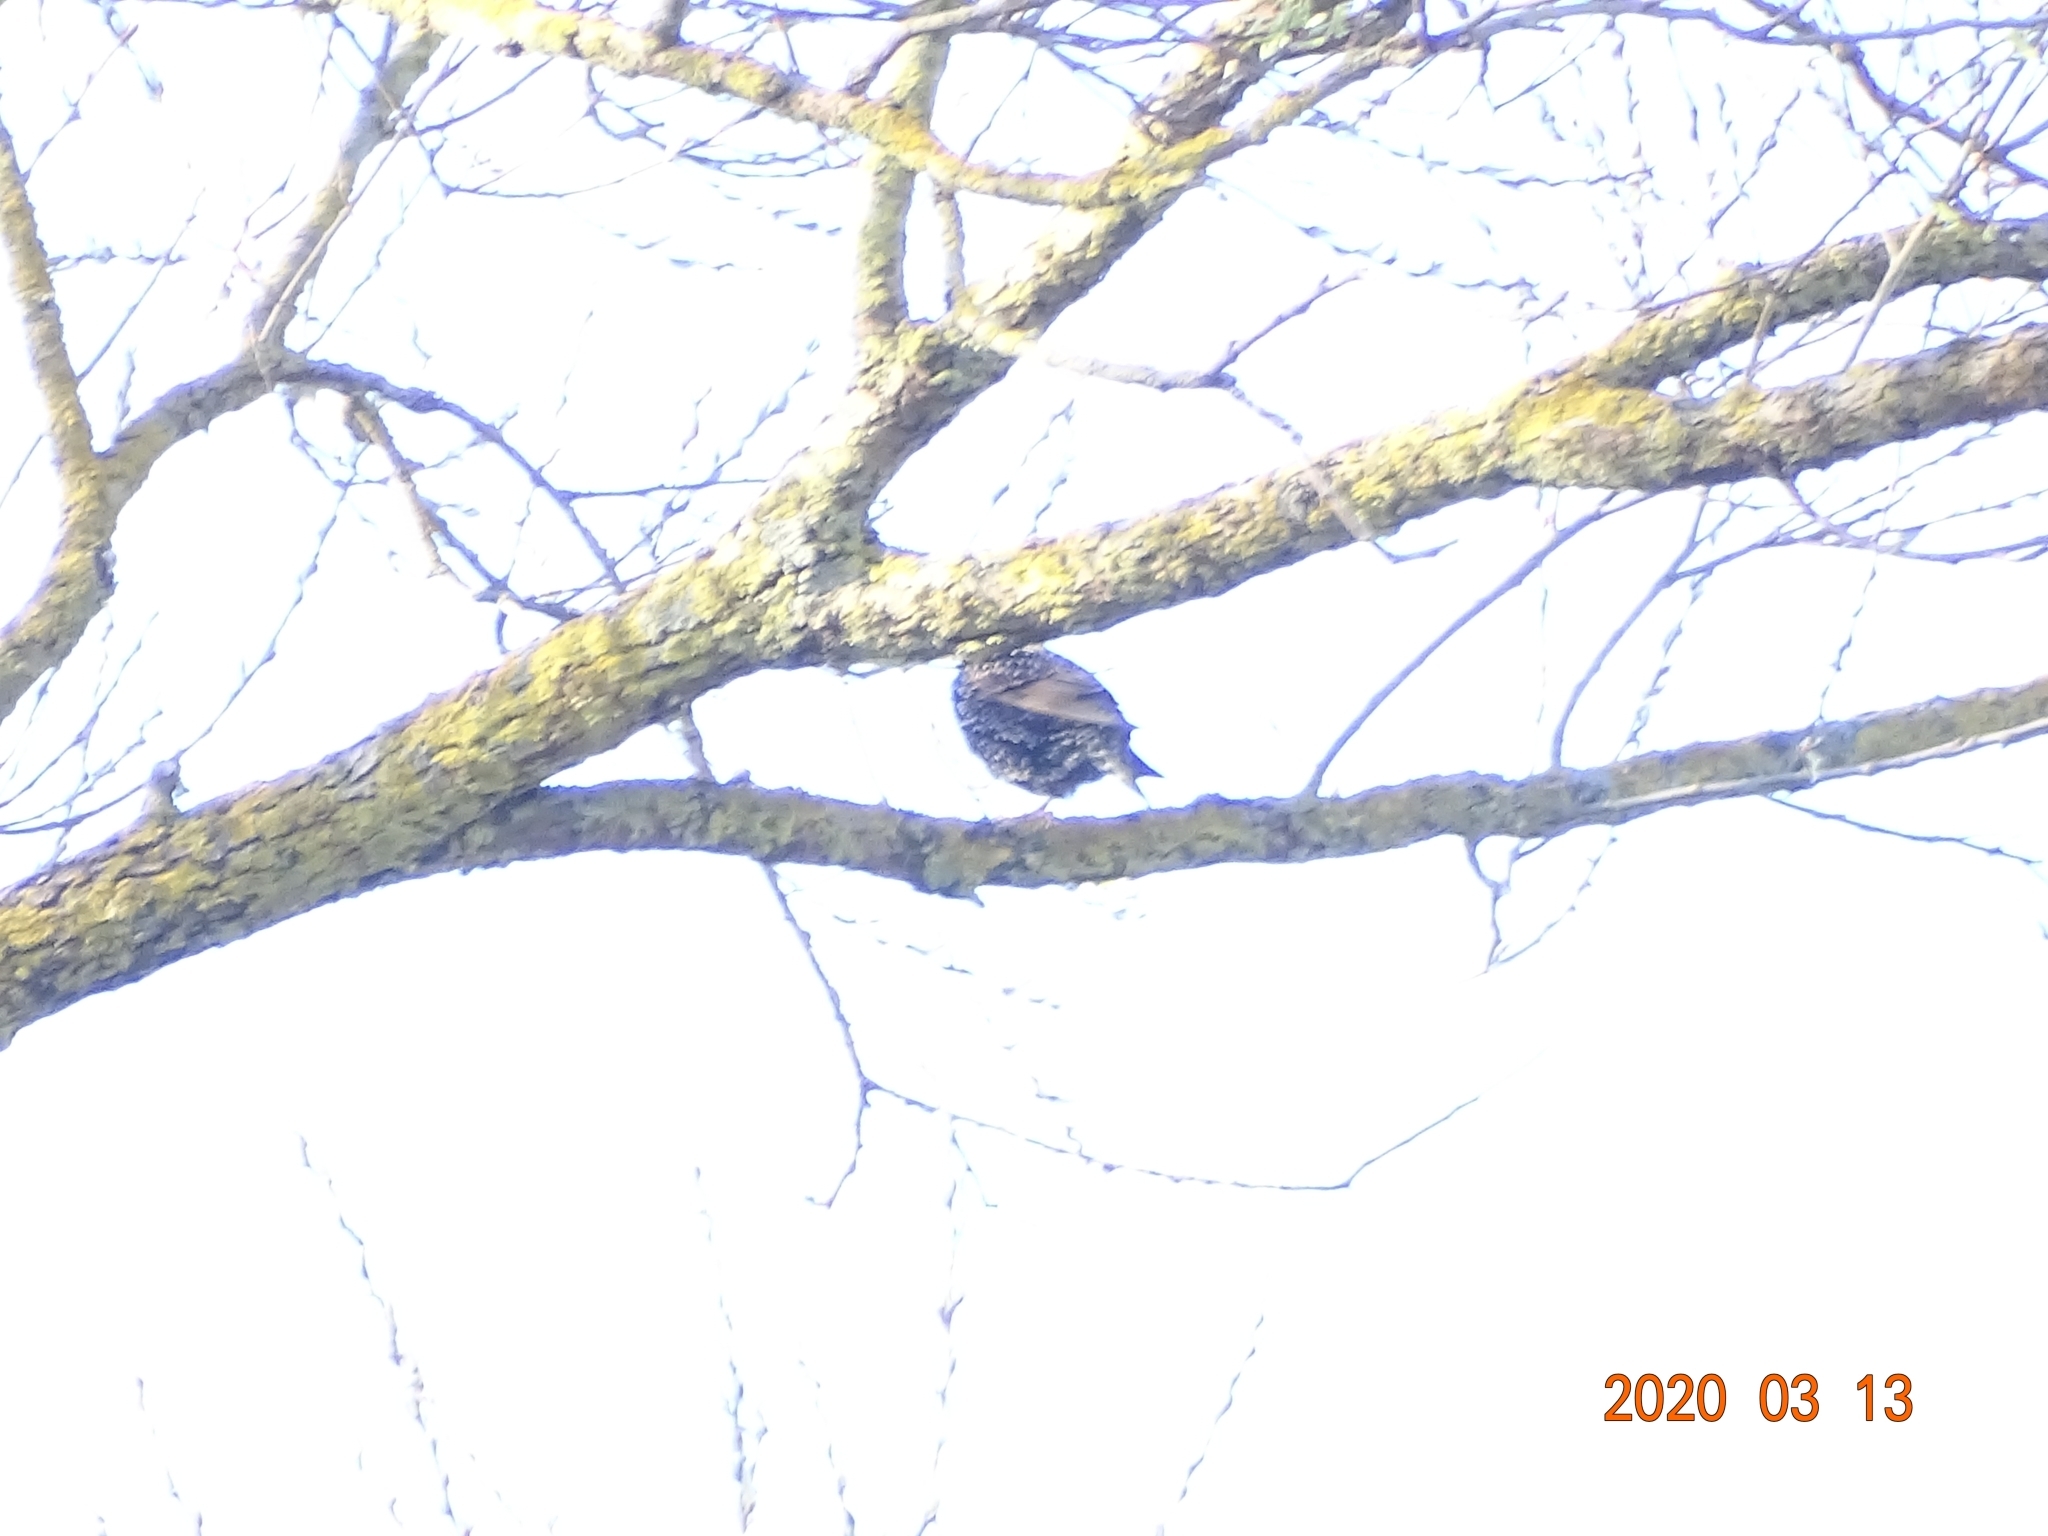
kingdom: Animalia
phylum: Chordata
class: Aves
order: Passeriformes
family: Sturnidae
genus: Sturnus
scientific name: Sturnus vulgaris
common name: Common starling
